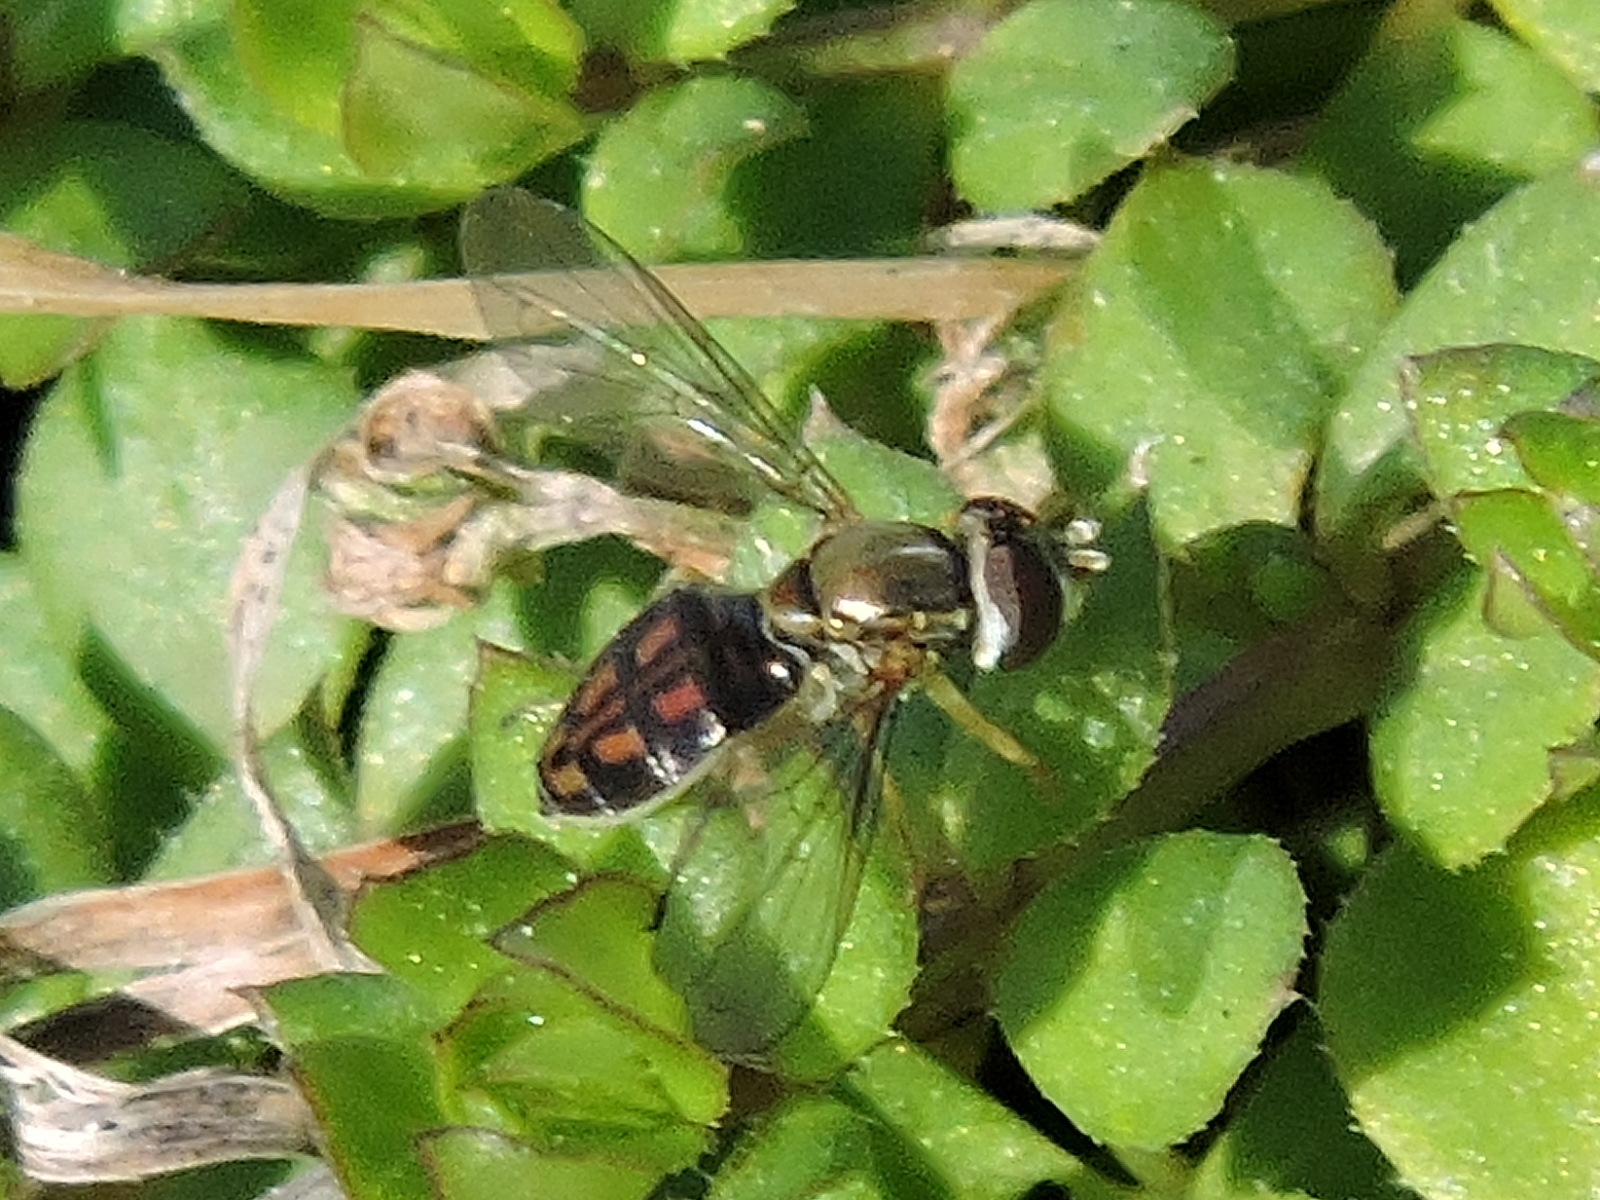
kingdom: Animalia
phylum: Arthropoda
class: Insecta
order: Diptera
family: Syrphidae
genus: Toxomerus
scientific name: Toxomerus marginatus
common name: Syrphid fly
